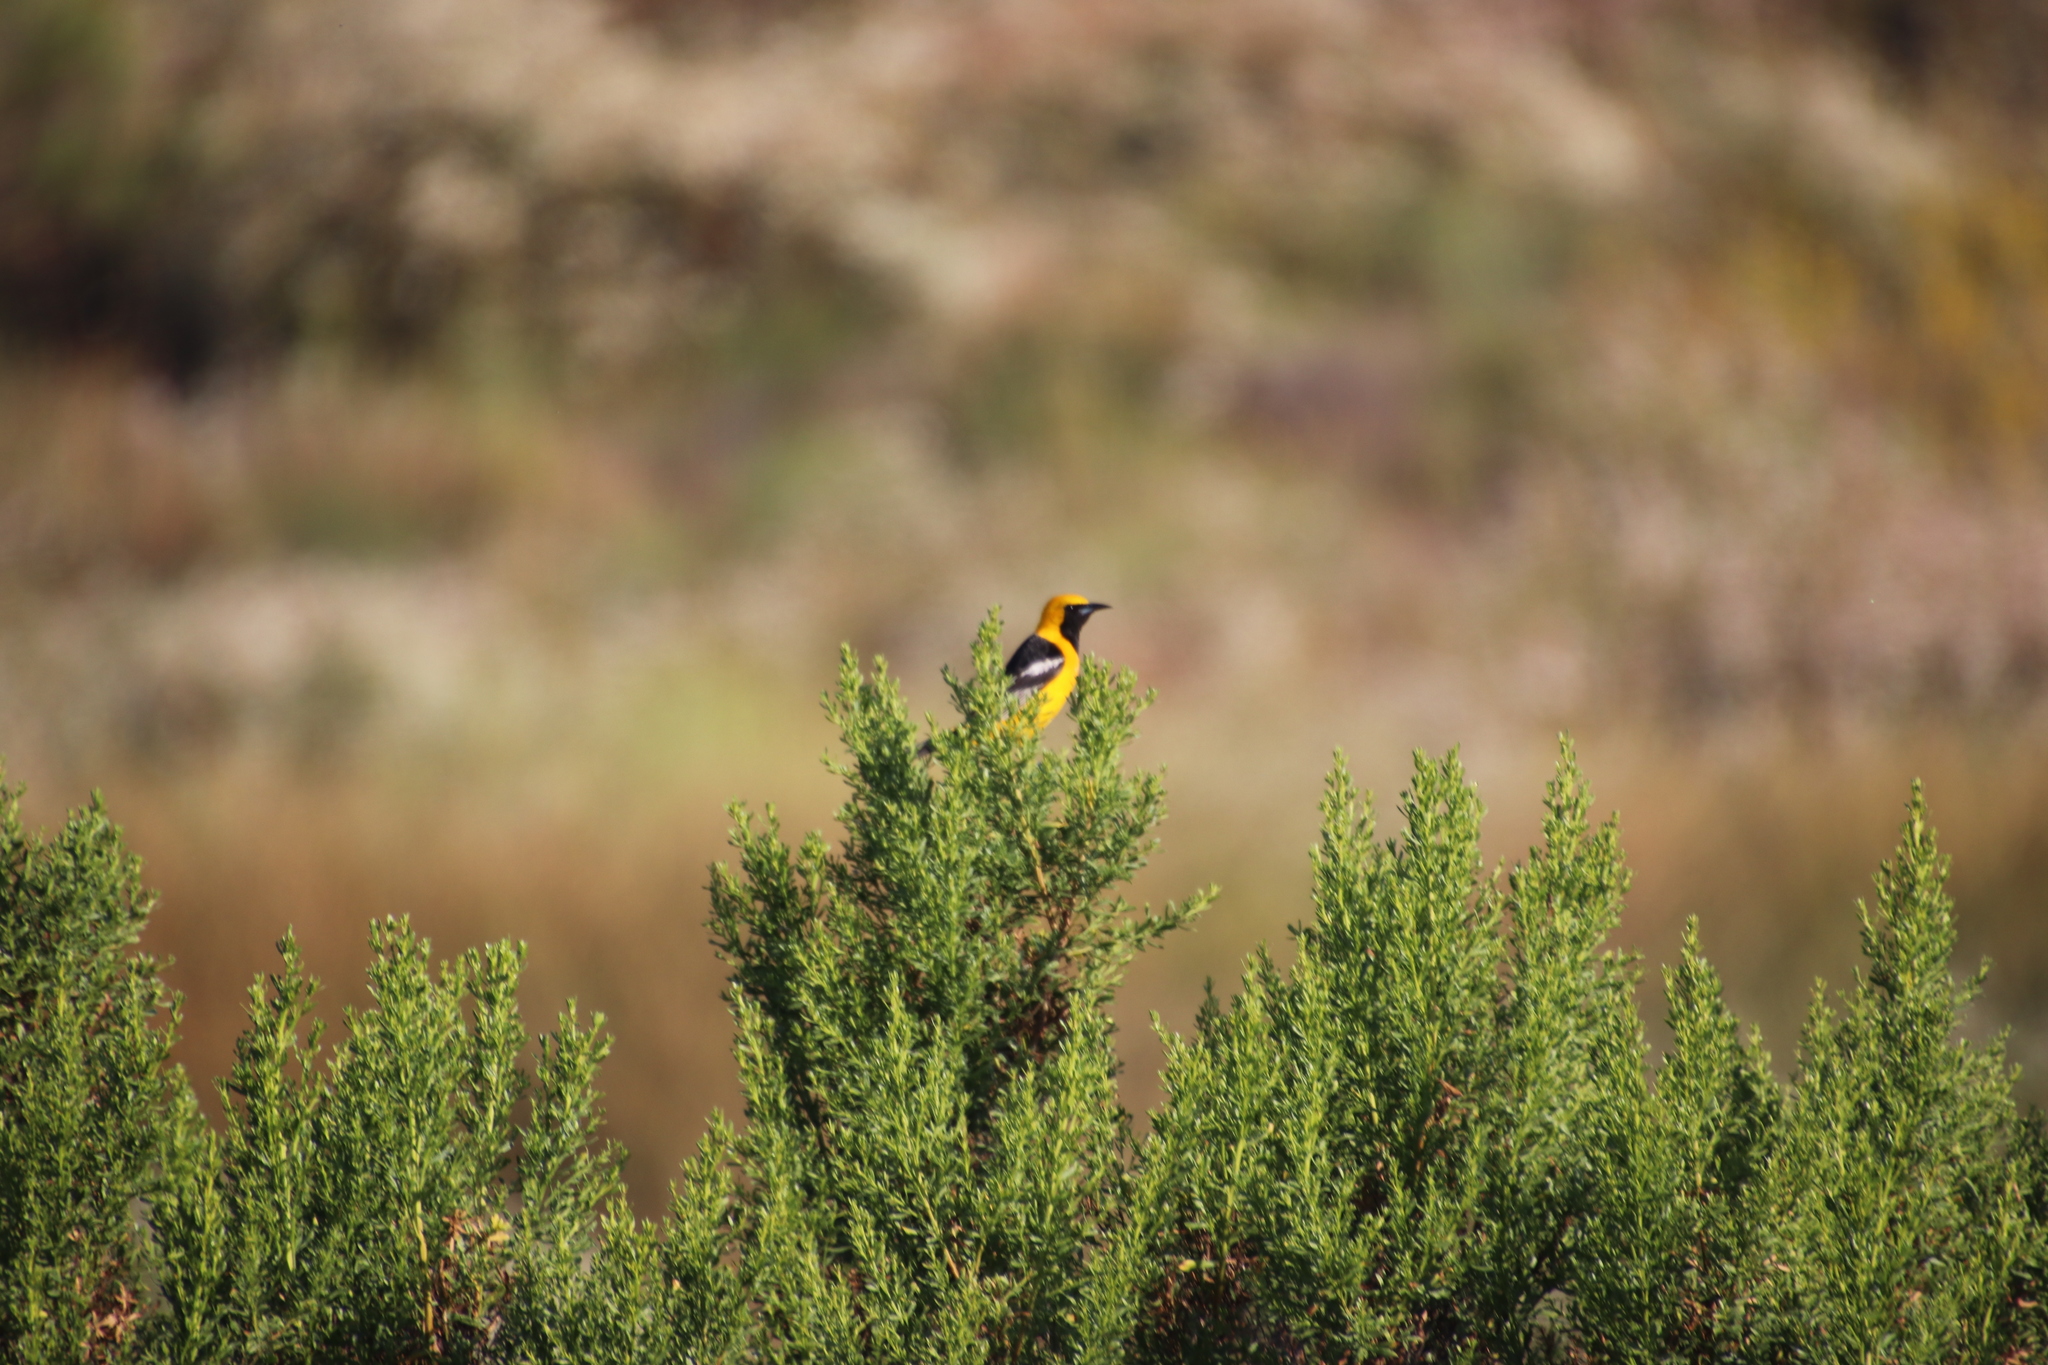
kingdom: Animalia
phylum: Chordata
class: Aves
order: Passeriformes
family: Icteridae
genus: Icterus
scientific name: Icterus cucullatus
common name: Hooded oriole
